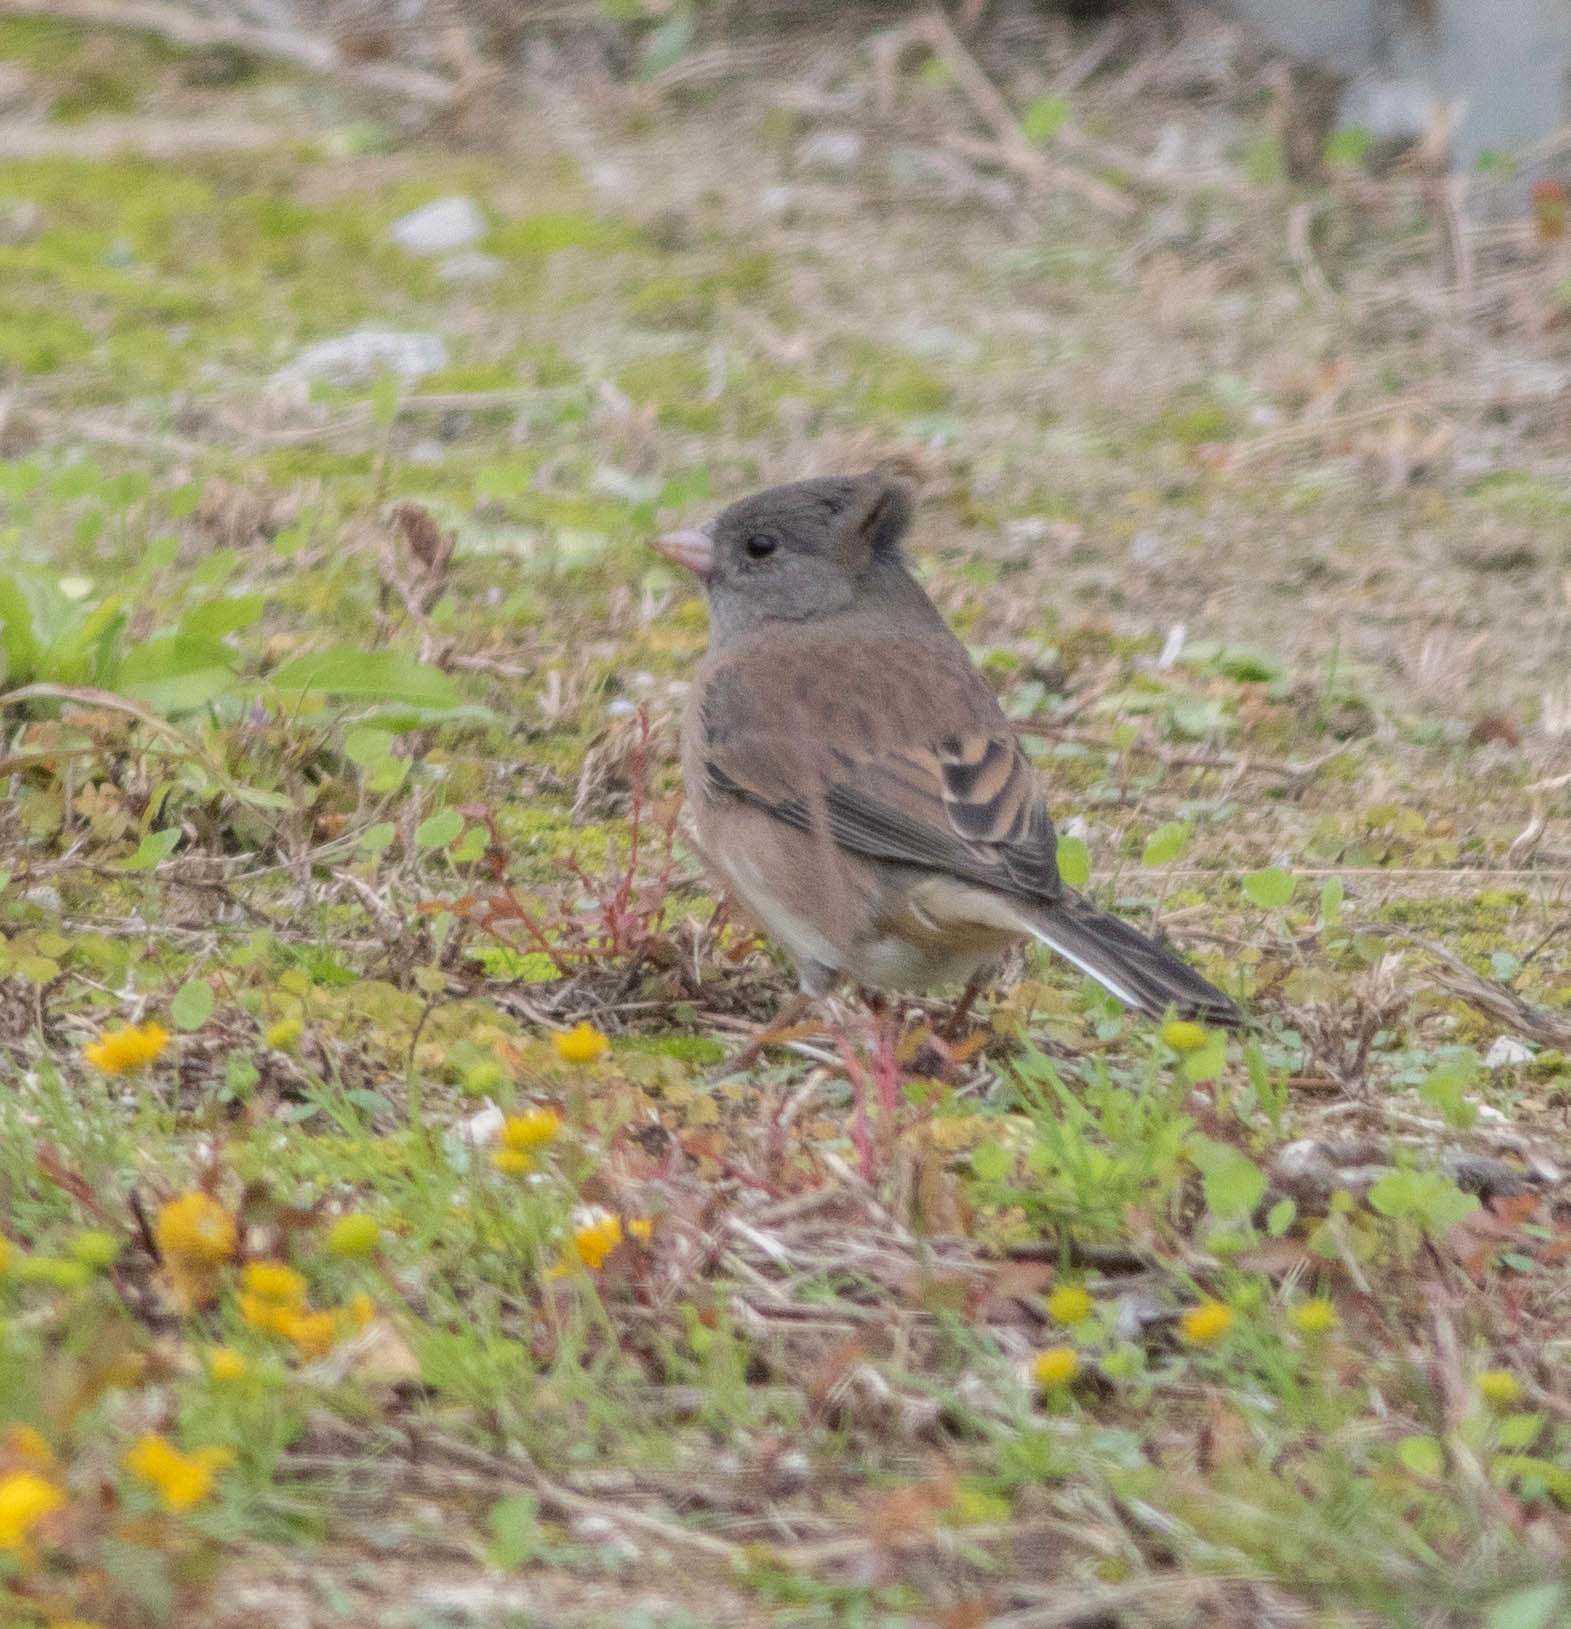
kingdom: Animalia
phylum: Chordata
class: Aves
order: Passeriformes
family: Passerellidae
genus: Junco
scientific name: Junco hyemalis
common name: Dark-eyed junco
